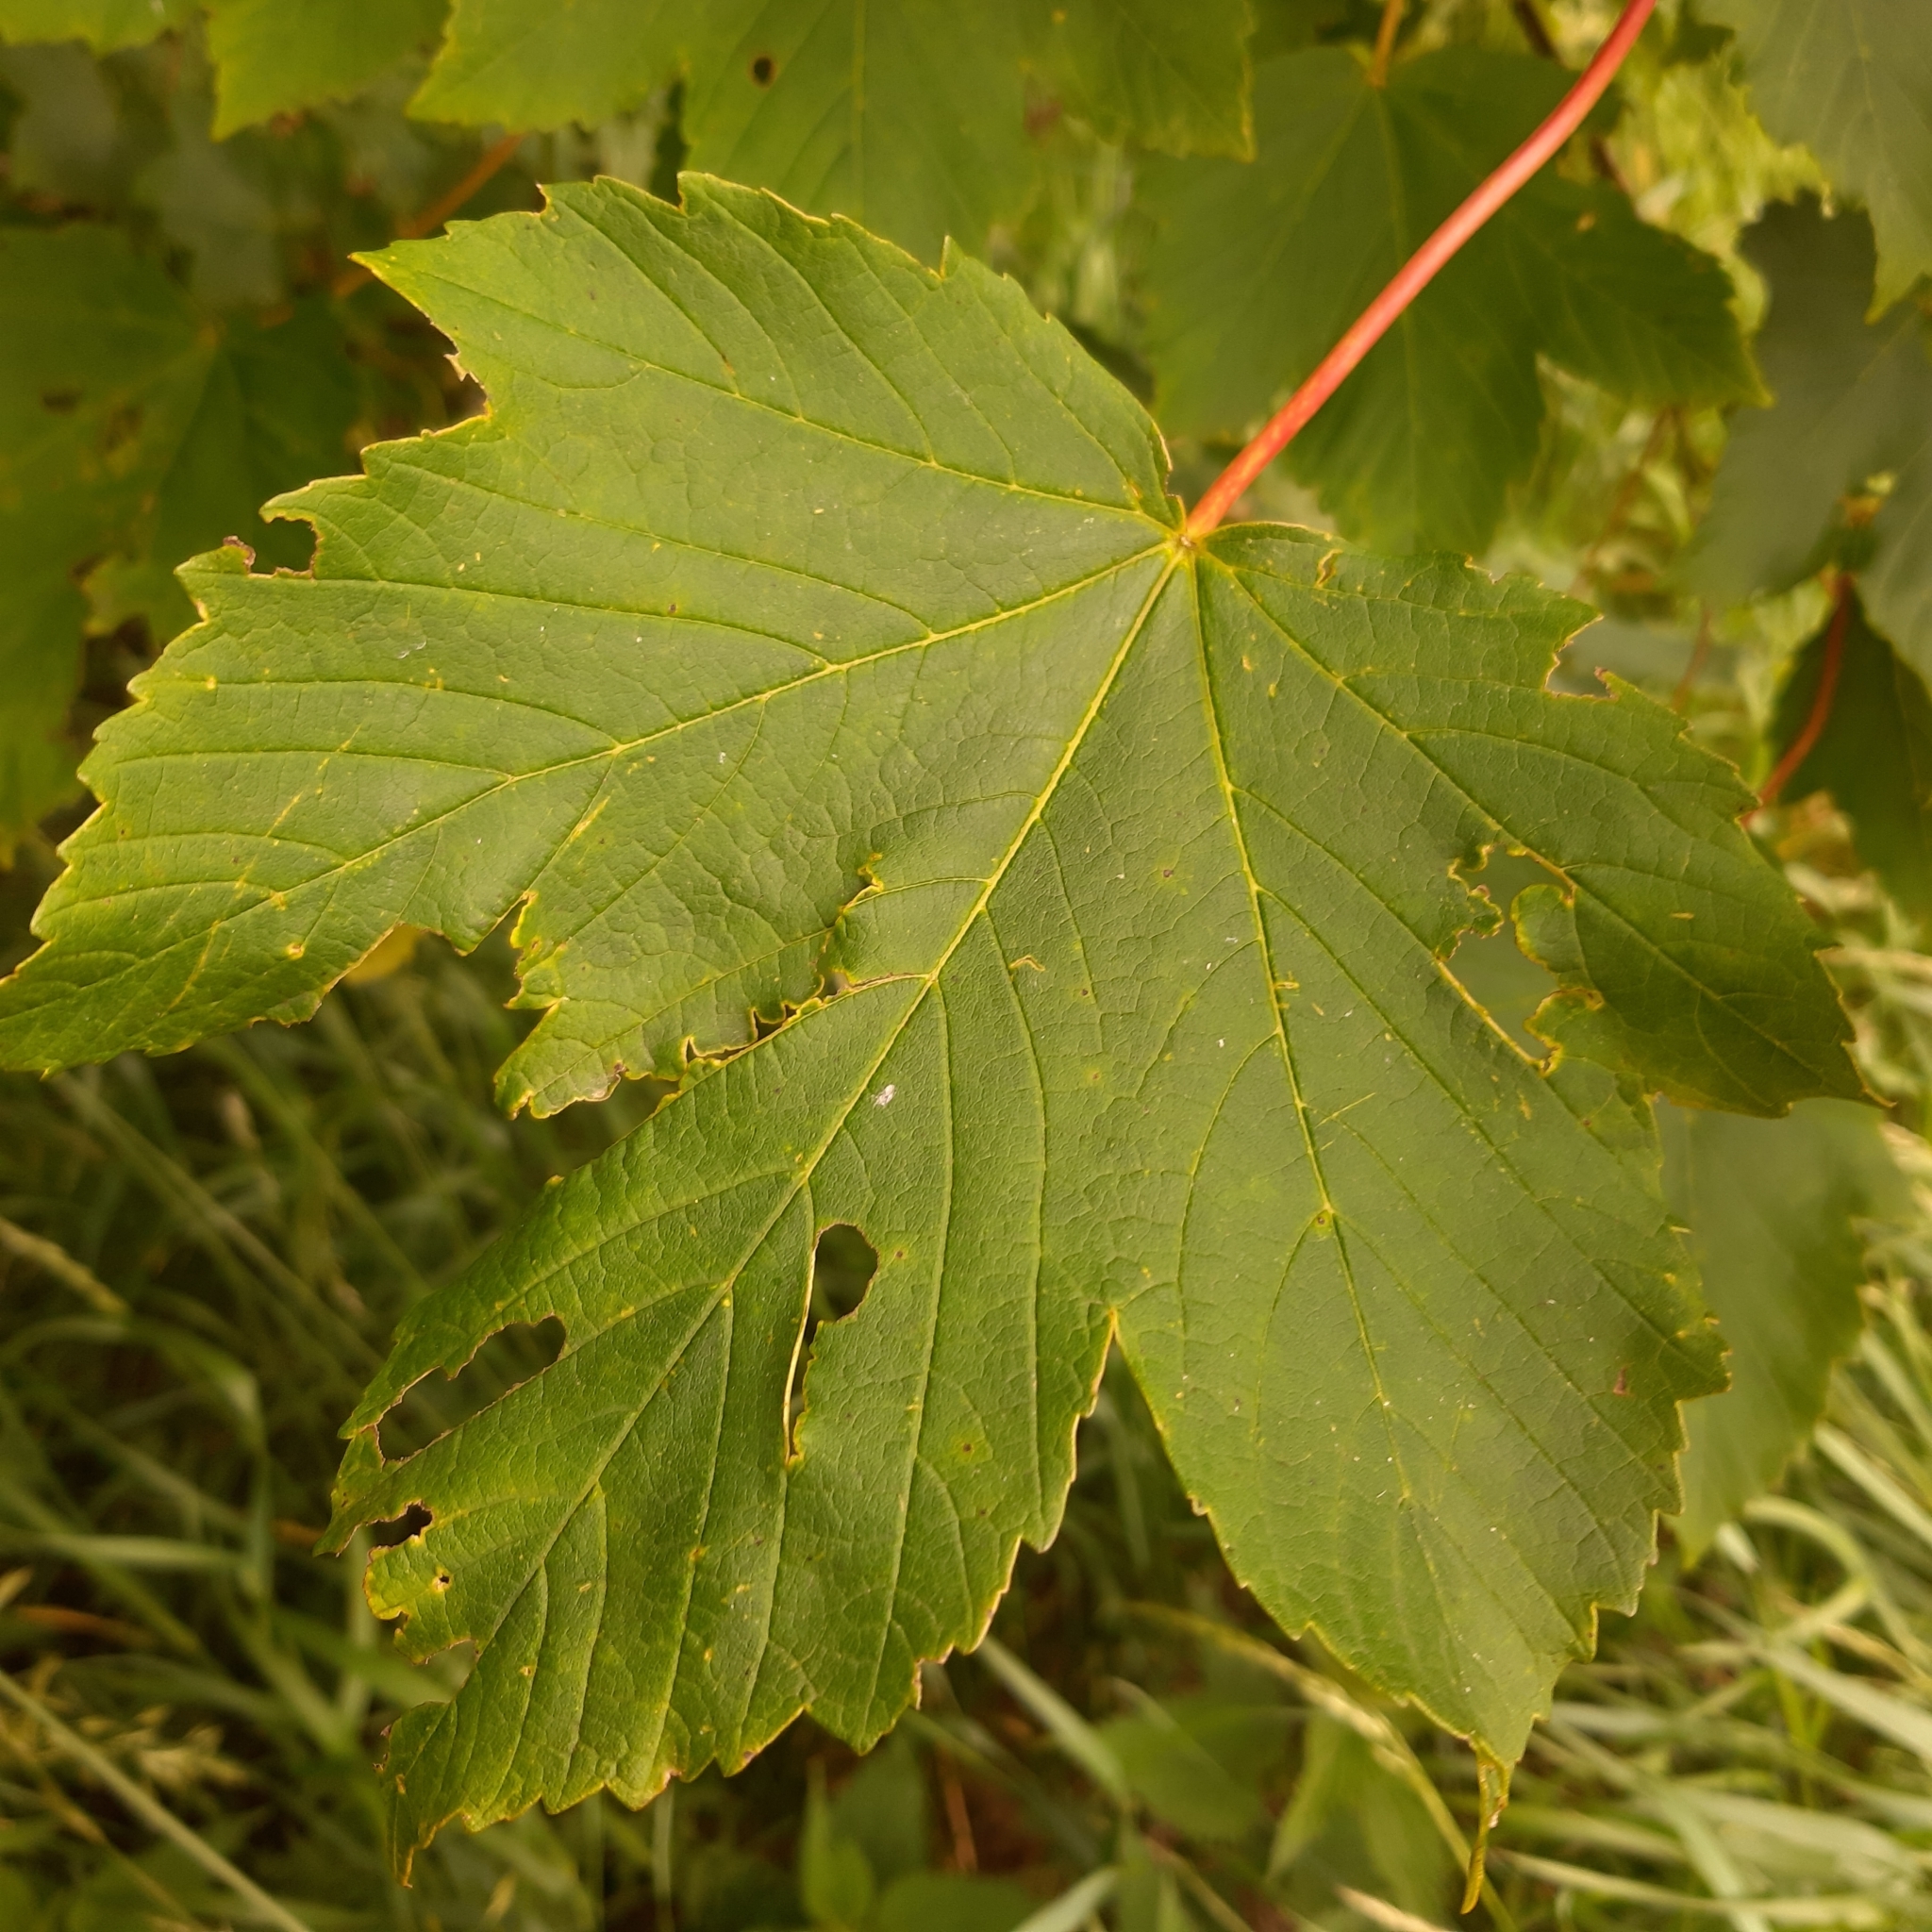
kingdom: Plantae
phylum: Tracheophyta
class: Magnoliopsida
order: Sapindales
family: Sapindaceae
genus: Acer
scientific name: Acer pseudoplatanus
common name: Sycamore
